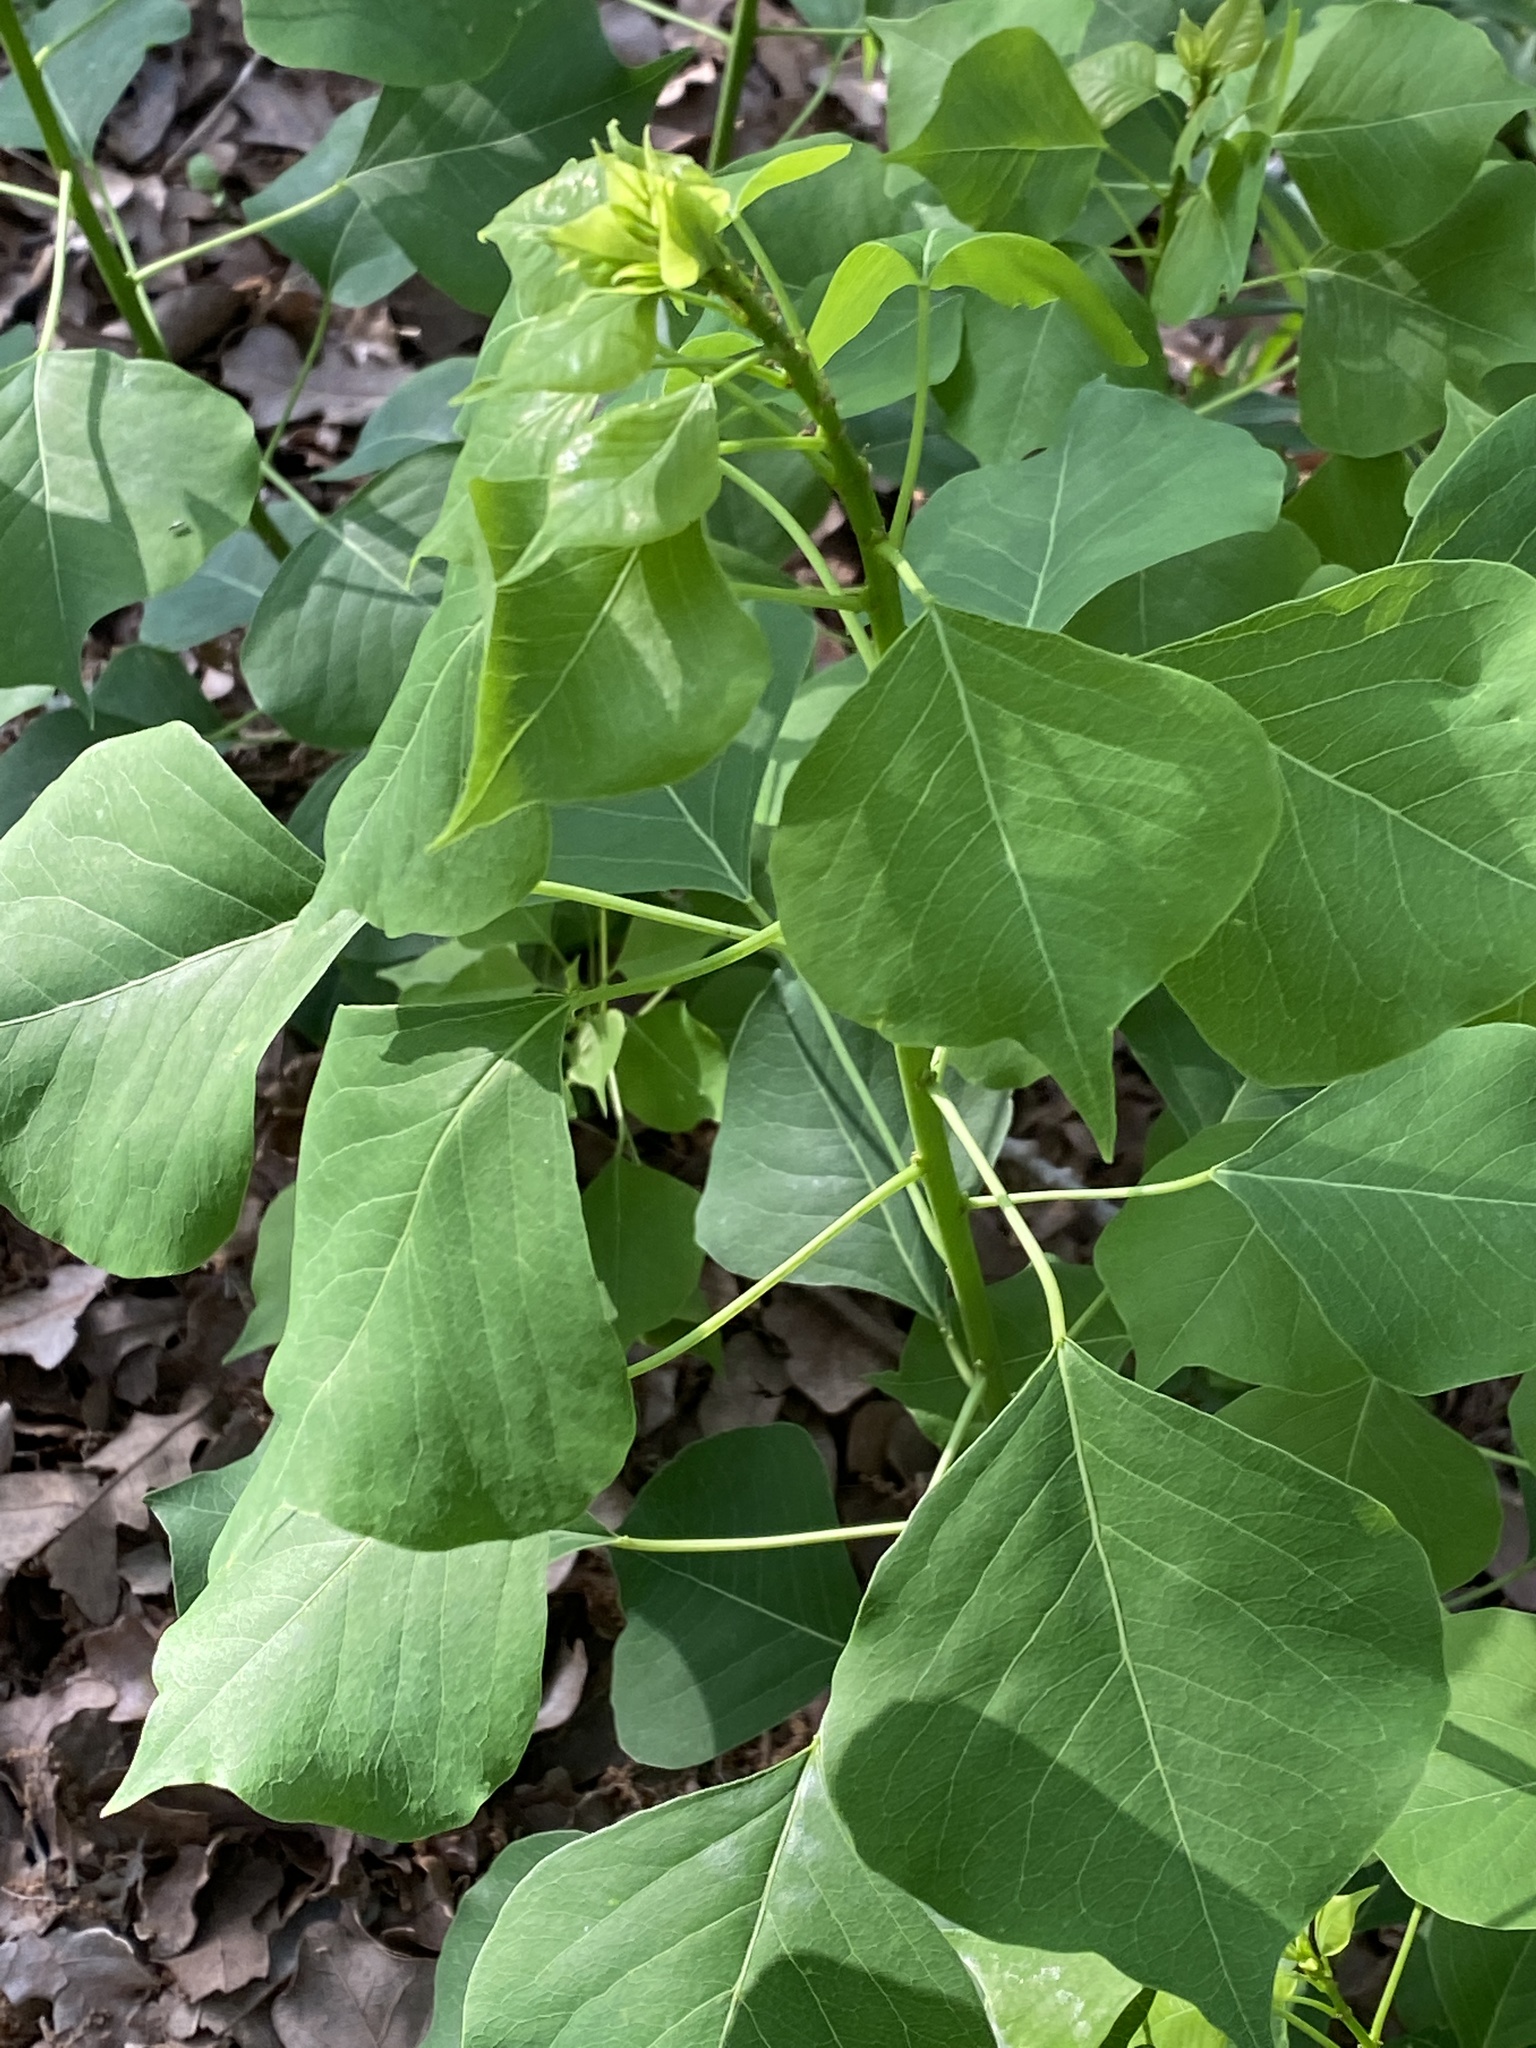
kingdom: Plantae
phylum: Tracheophyta
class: Magnoliopsida
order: Malpighiales
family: Euphorbiaceae
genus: Triadica
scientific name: Triadica sebifera
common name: Chinese tallow
